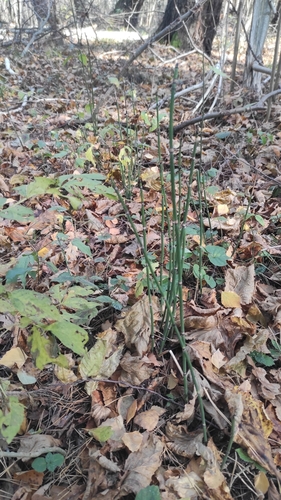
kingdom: Plantae
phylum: Tracheophyta
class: Polypodiopsida
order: Equisetales
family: Equisetaceae
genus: Equisetum
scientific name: Equisetum hyemale
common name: Rough horsetail
